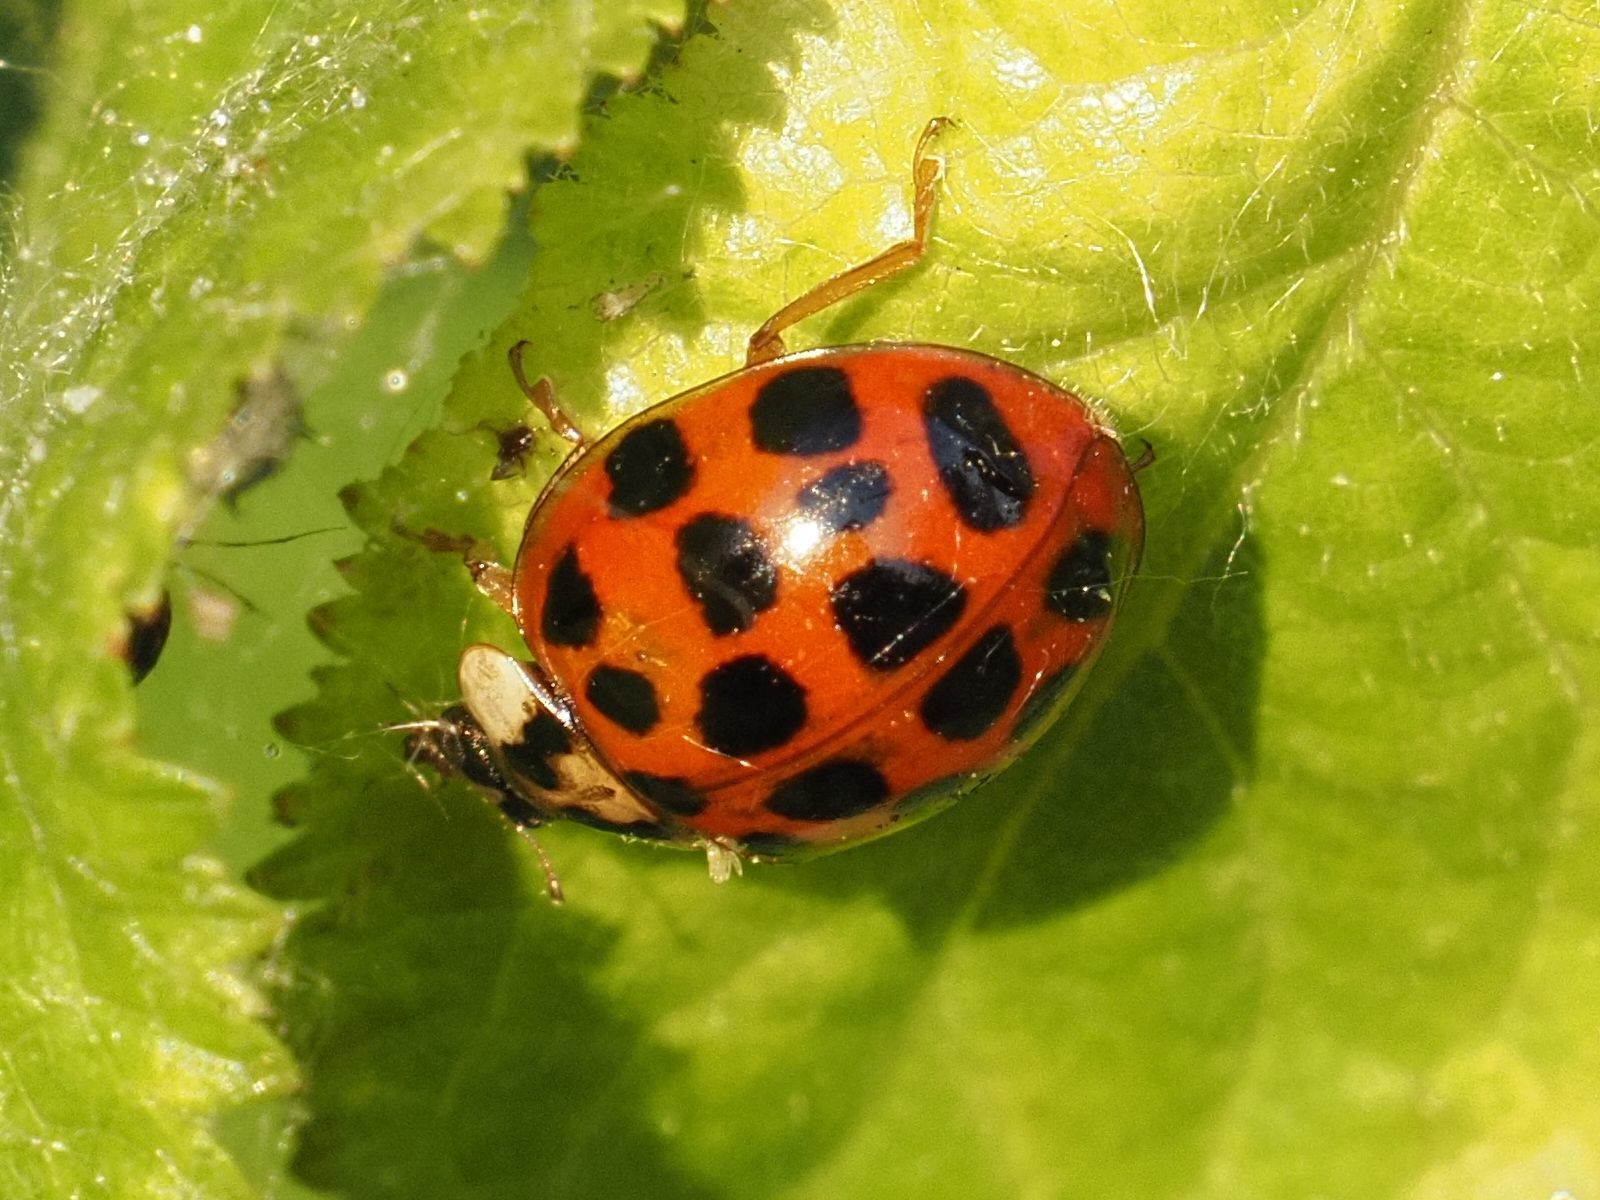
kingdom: Animalia
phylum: Arthropoda
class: Insecta
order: Coleoptera
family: Coccinellidae
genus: Harmonia
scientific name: Harmonia axyridis
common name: Harlequin ladybird
